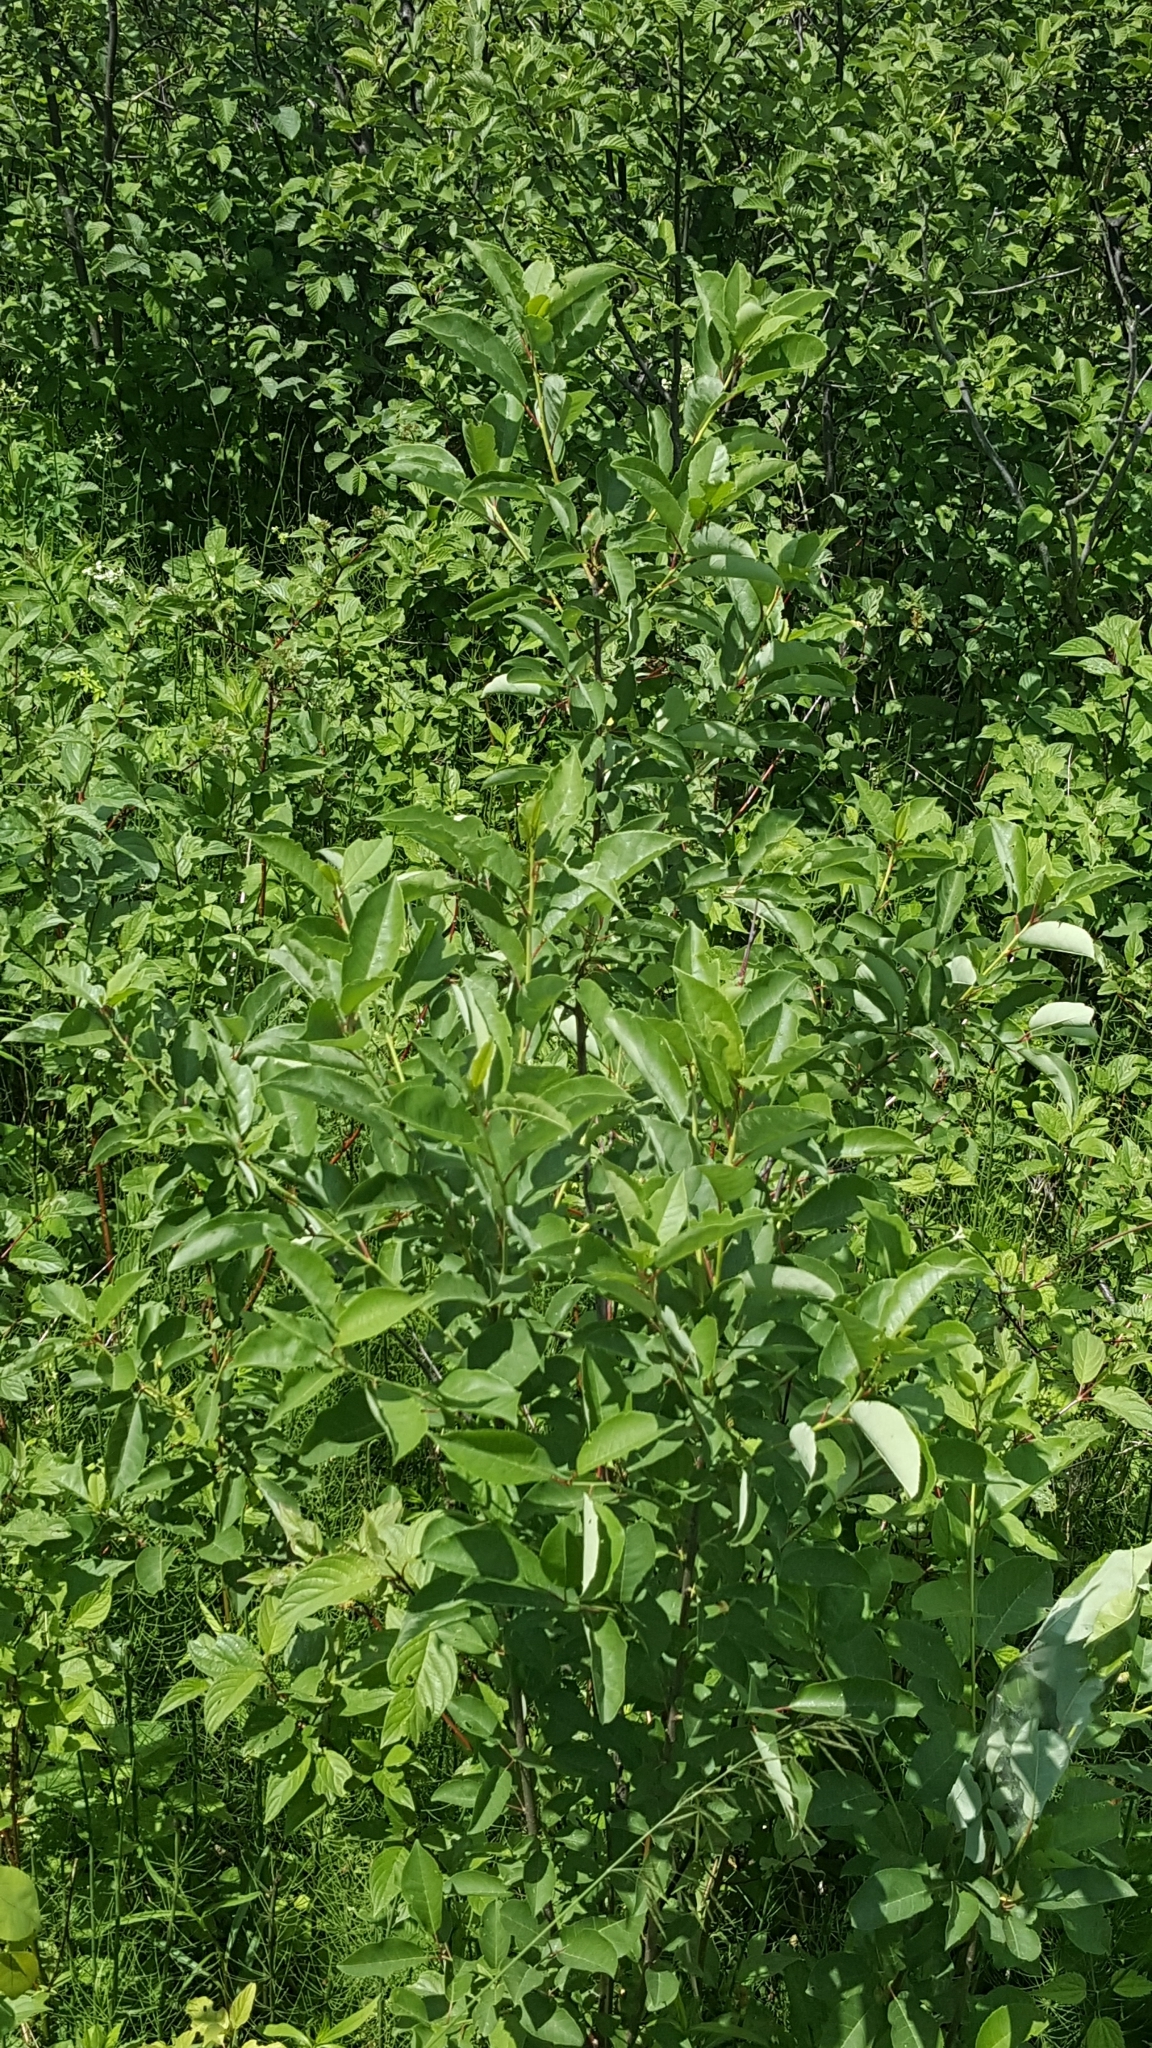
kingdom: Plantae
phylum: Tracheophyta
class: Magnoliopsida
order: Rosales
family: Rosaceae
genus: Prunus
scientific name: Prunus virginiana
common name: Chokecherry
